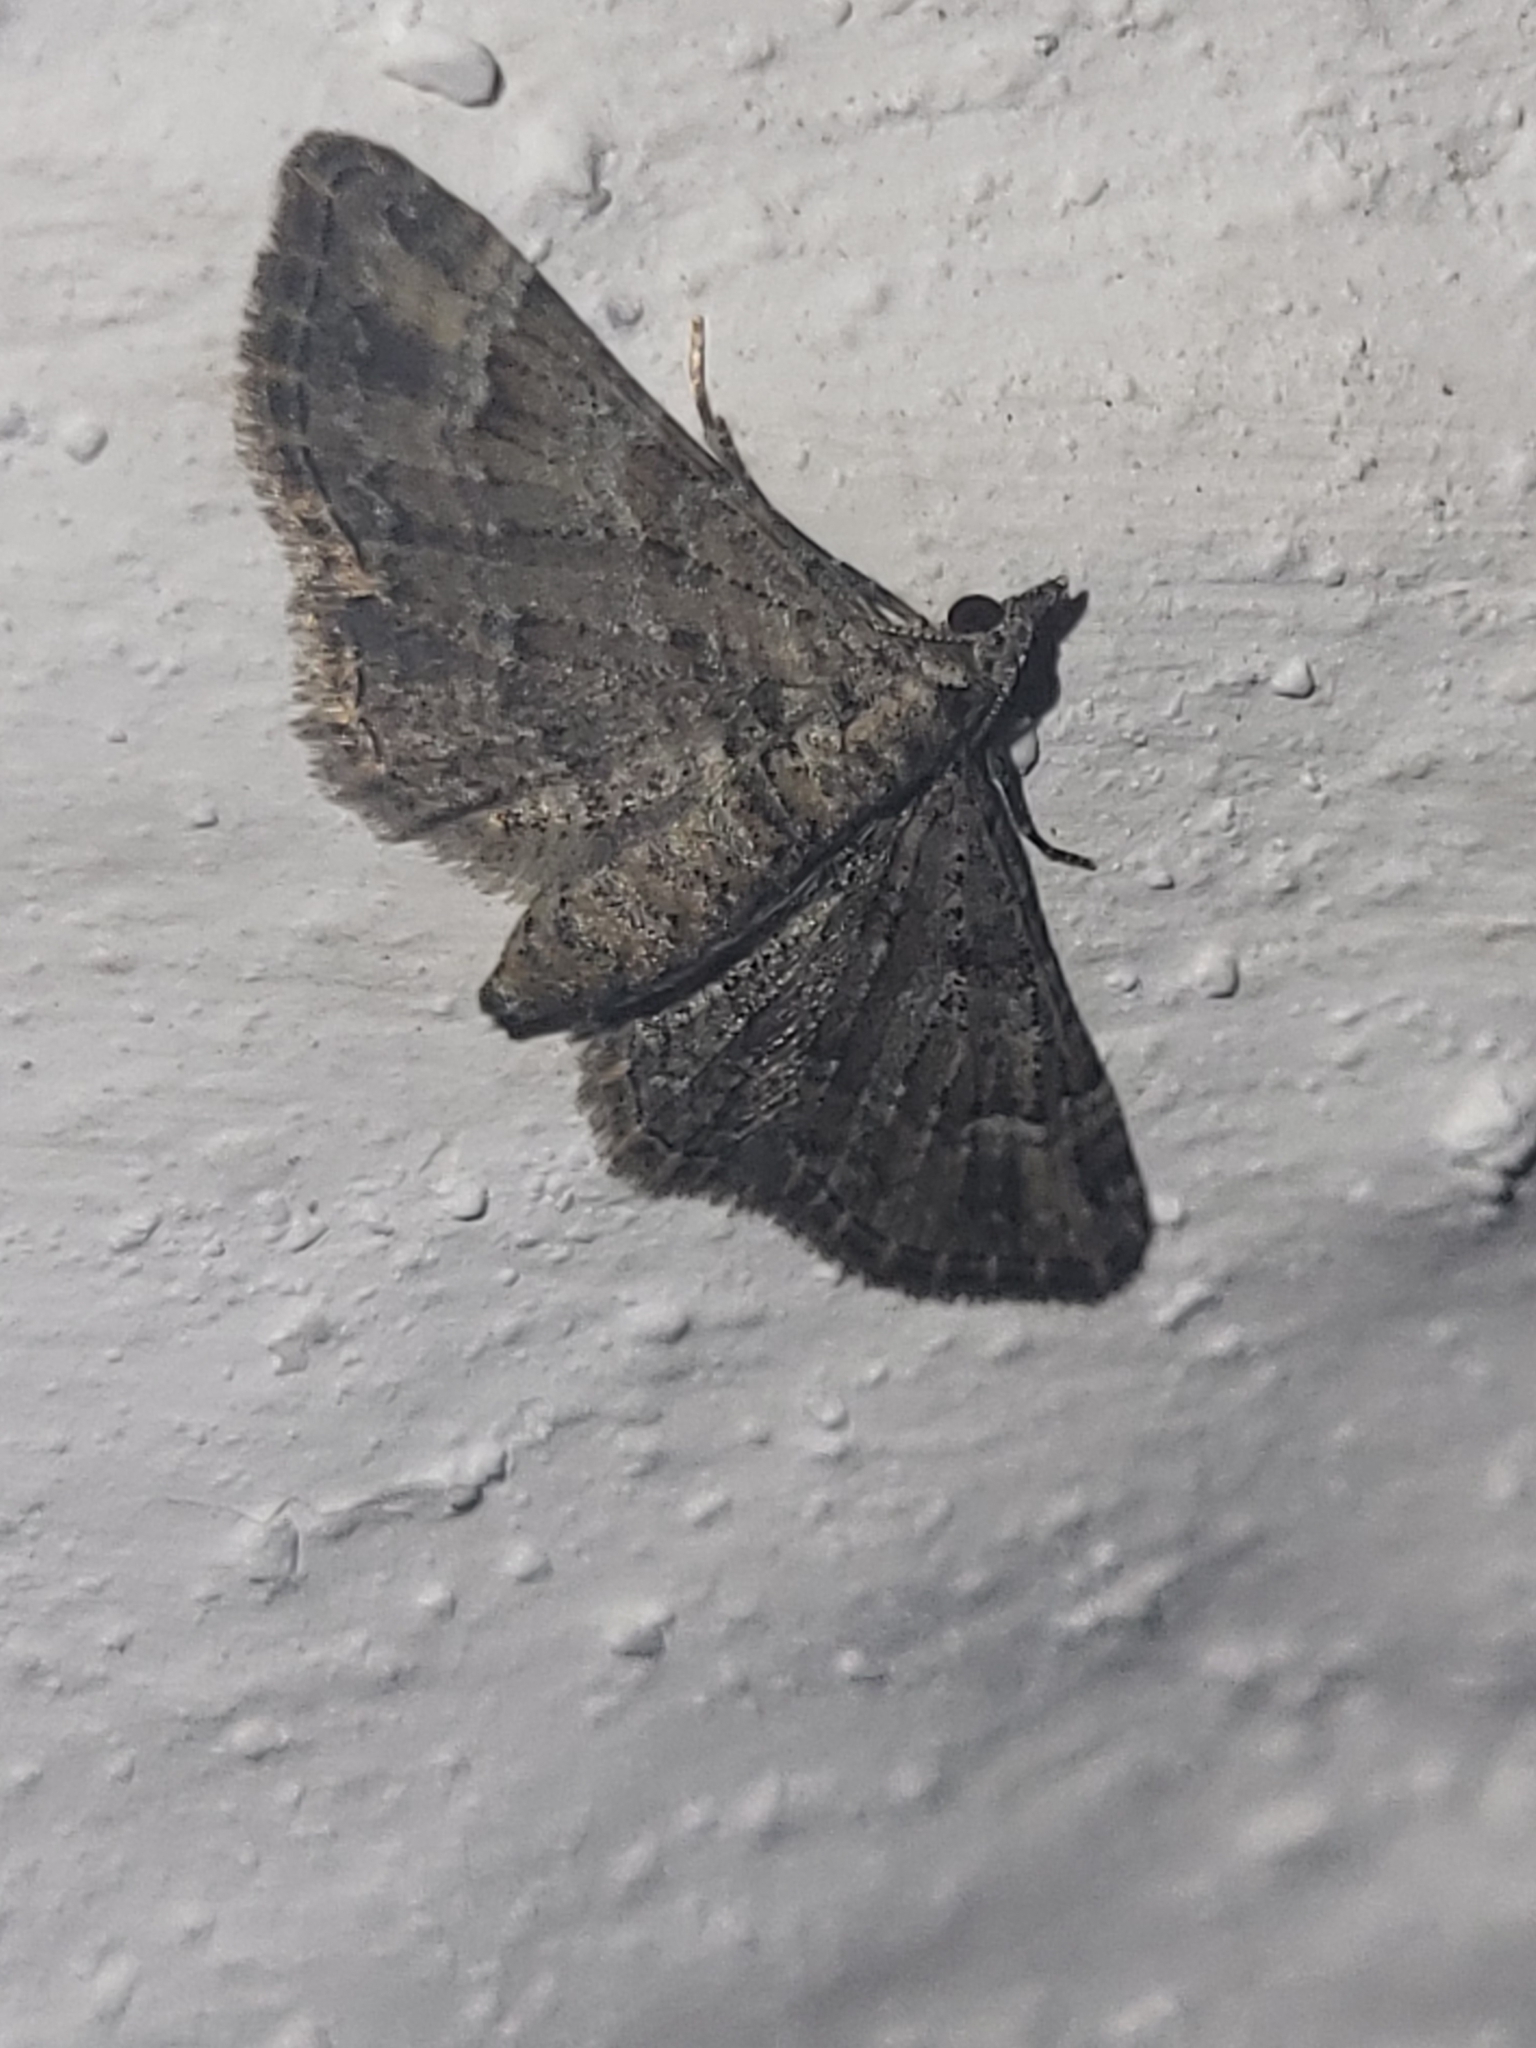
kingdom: Animalia
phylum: Arthropoda
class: Insecta
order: Lepidoptera
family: Geometridae
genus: Gymnoscelis
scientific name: Gymnoscelis rufifasciata
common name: Double-striped pug
